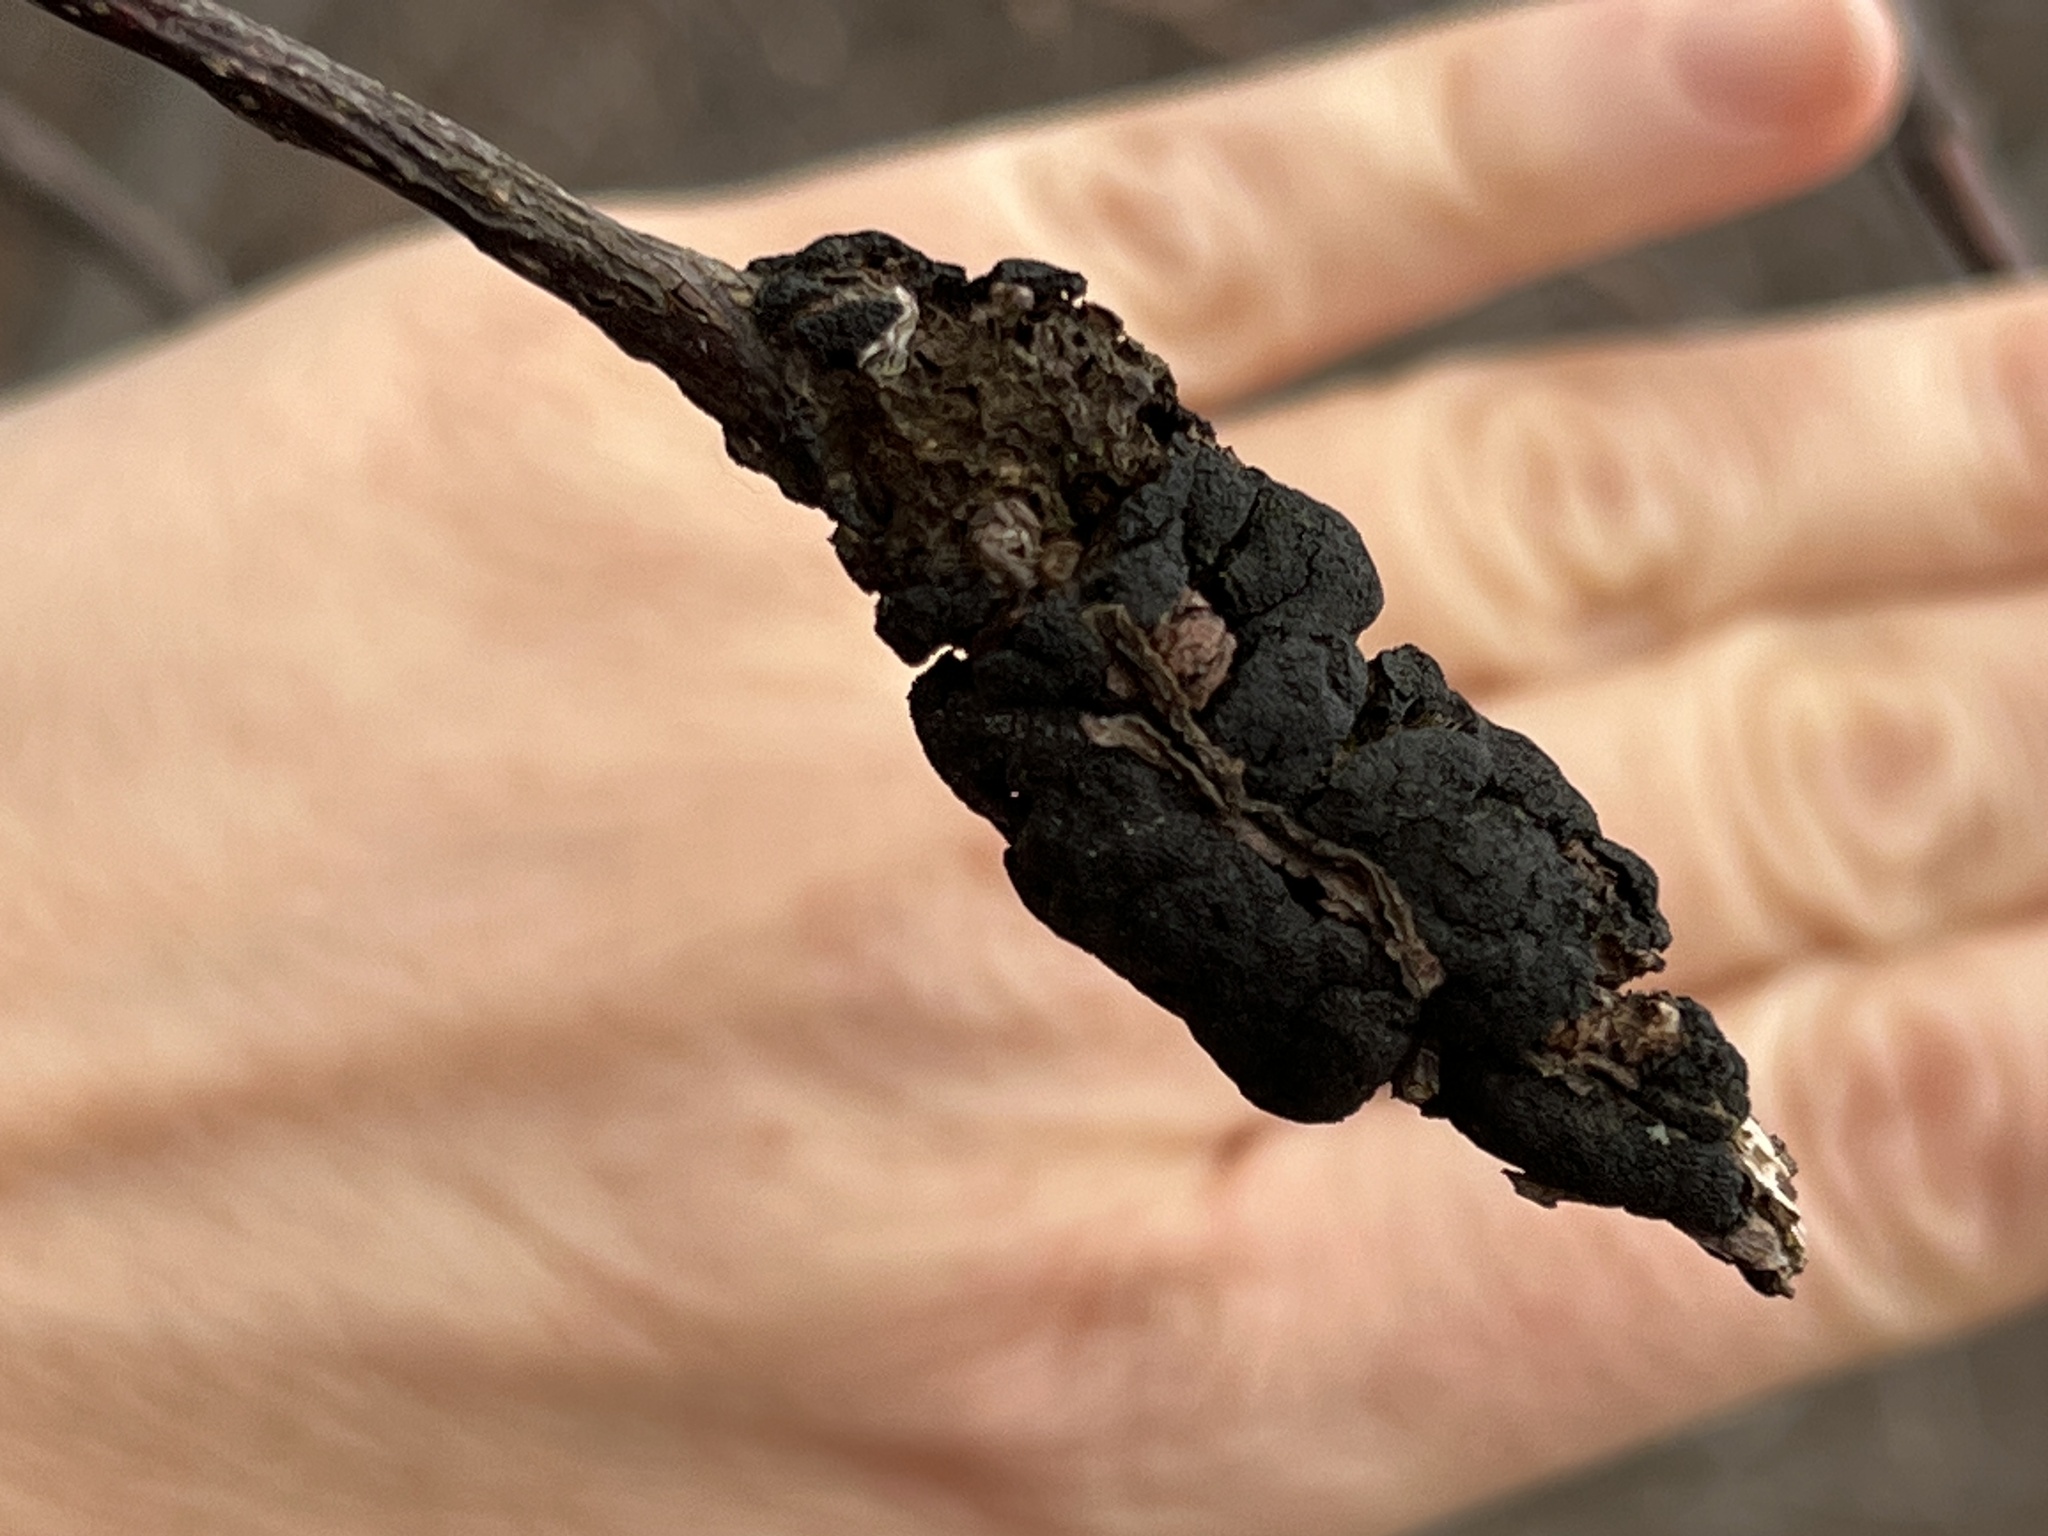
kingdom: Fungi
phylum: Ascomycota
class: Dothideomycetes
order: Venturiales
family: Venturiaceae
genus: Apiosporina
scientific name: Apiosporina morbosa
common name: Black knot
